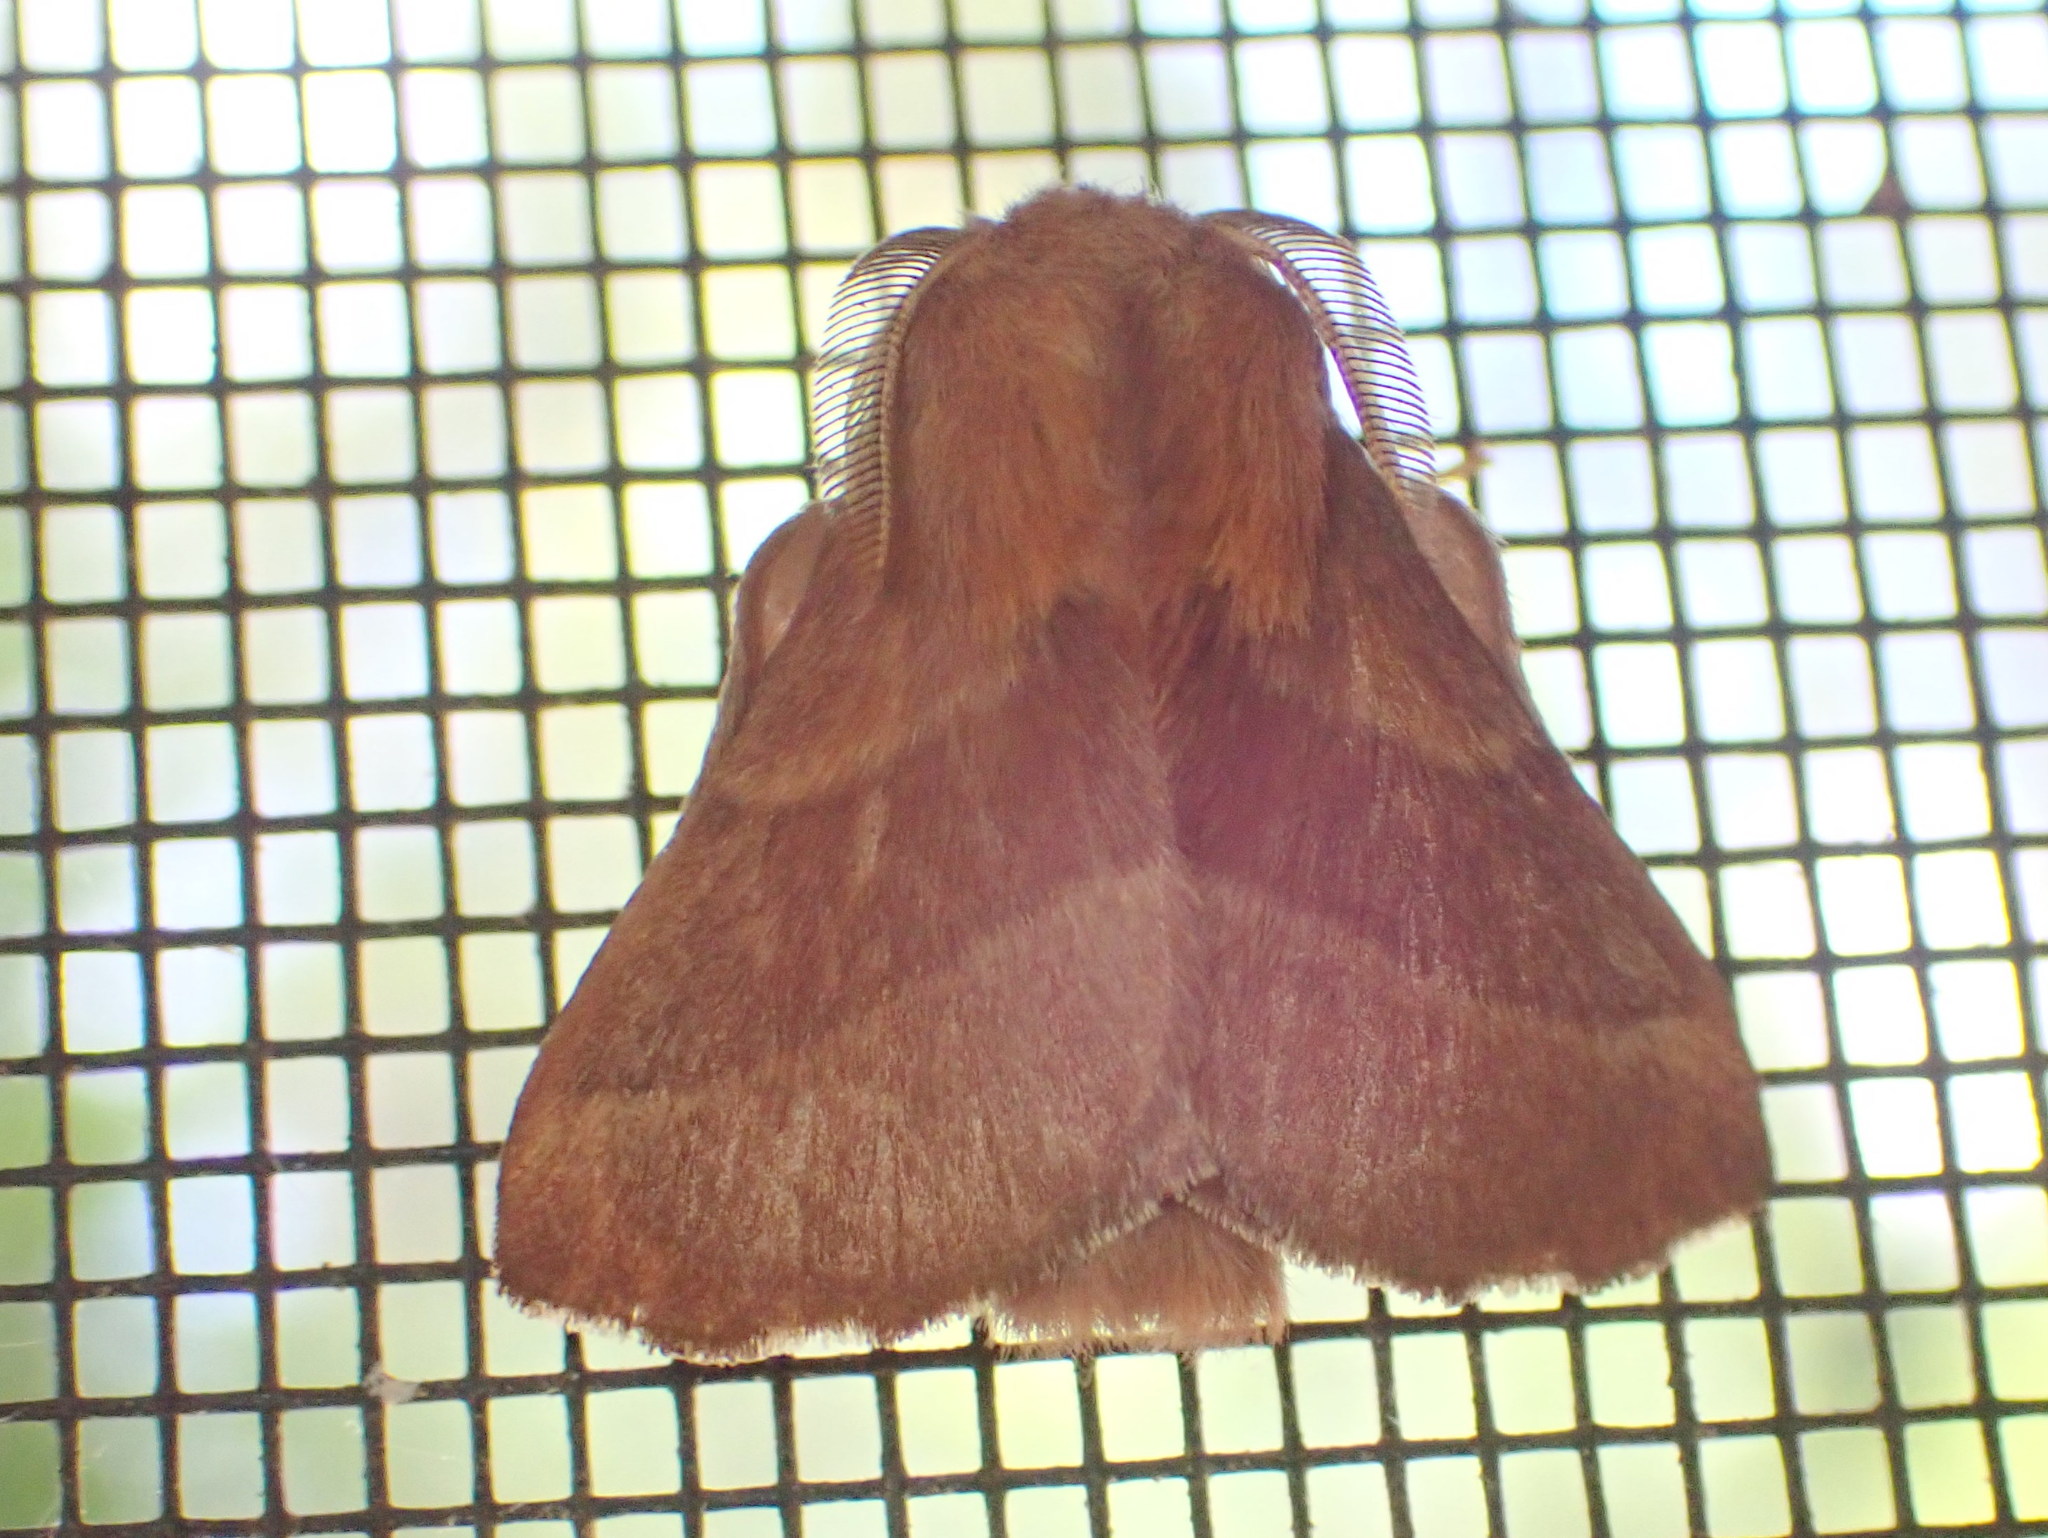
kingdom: Animalia
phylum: Arthropoda
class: Insecta
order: Lepidoptera
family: Lasiocampidae
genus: Malacosoma
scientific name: Malacosoma disstria
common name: Forest tent caterpillar
